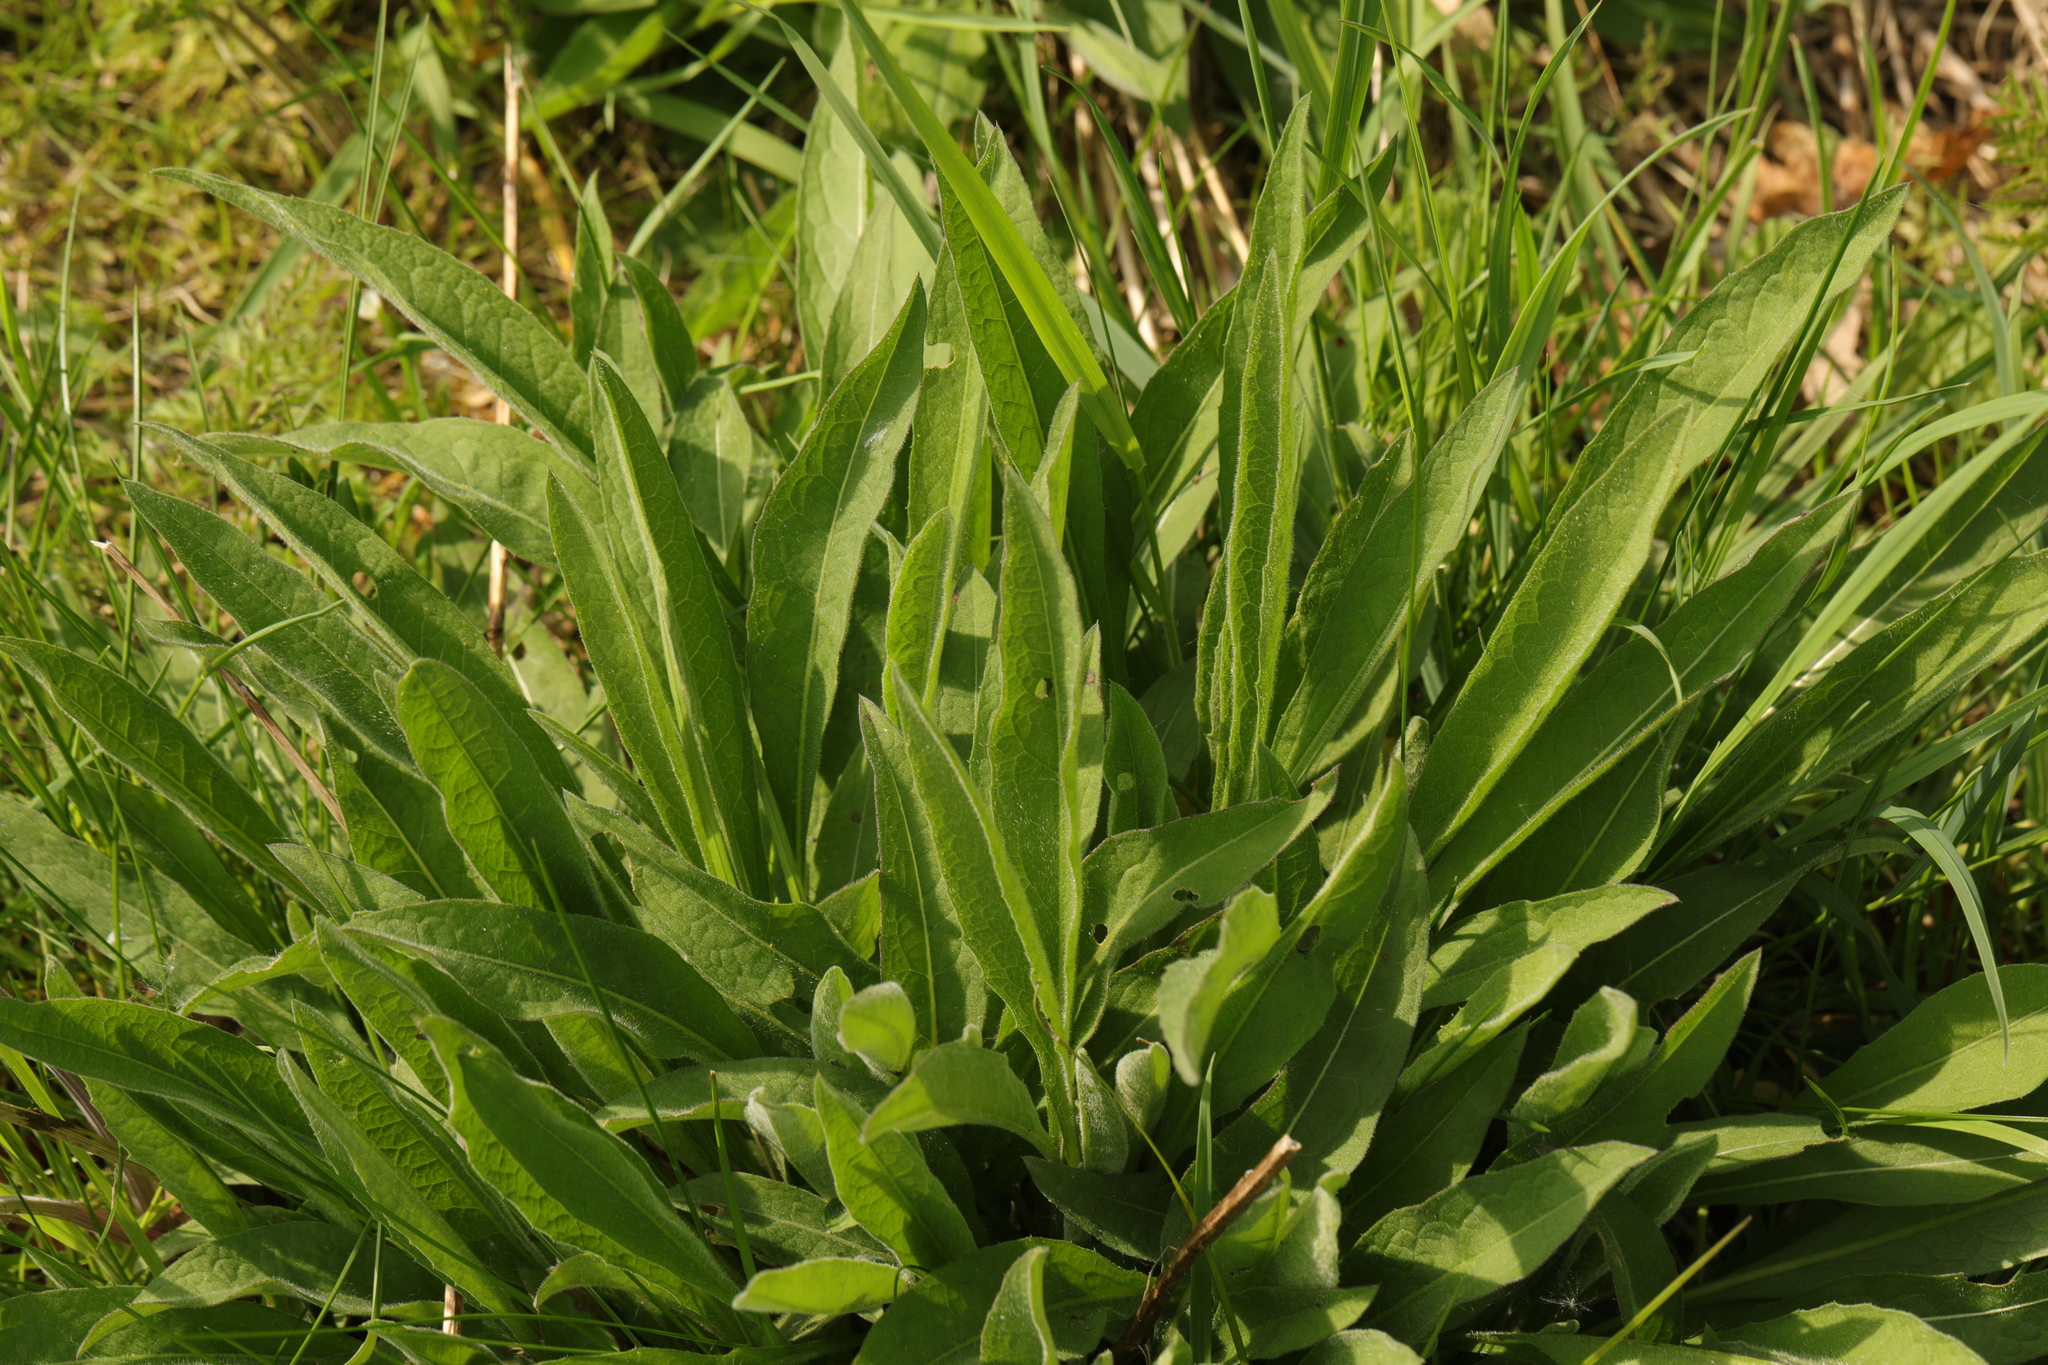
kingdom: Plantae
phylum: Tracheophyta
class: Magnoliopsida
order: Asterales
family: Asteraceae
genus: Centaurea
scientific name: Centaurea nigra
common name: Lesser knapweed
